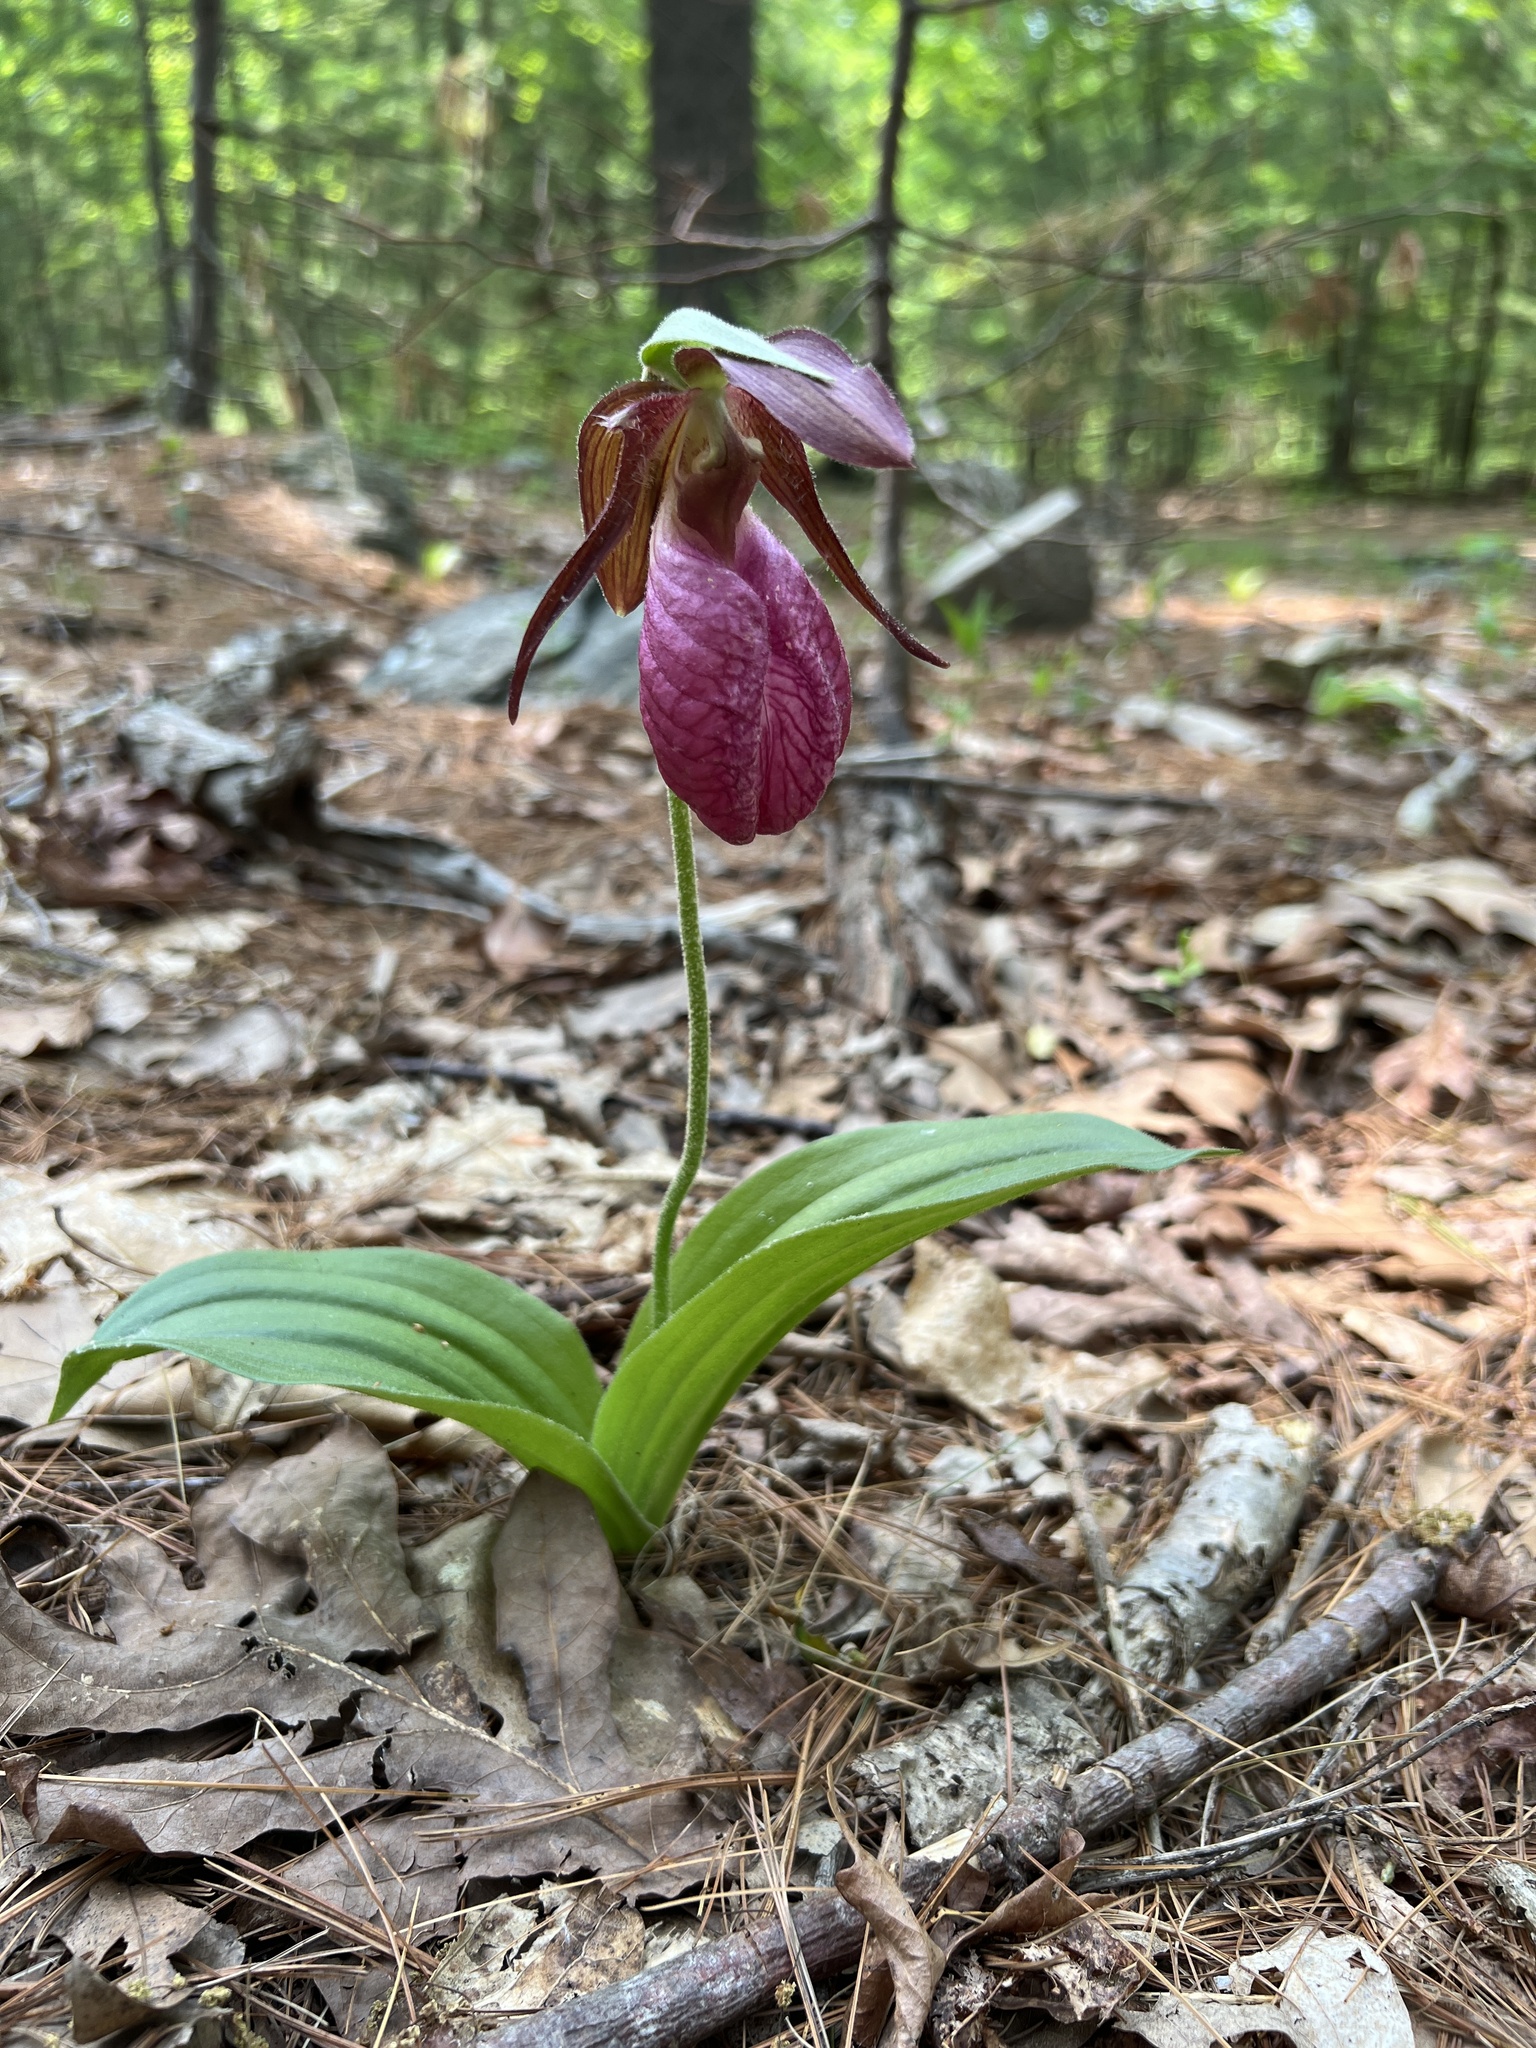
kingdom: Plantae
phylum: Tracheophyta
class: Liliopsida
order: Asparagales
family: Orchidaceae
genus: Cypripedium
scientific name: Cypripedium acaule
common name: Pink lady's-slipper
